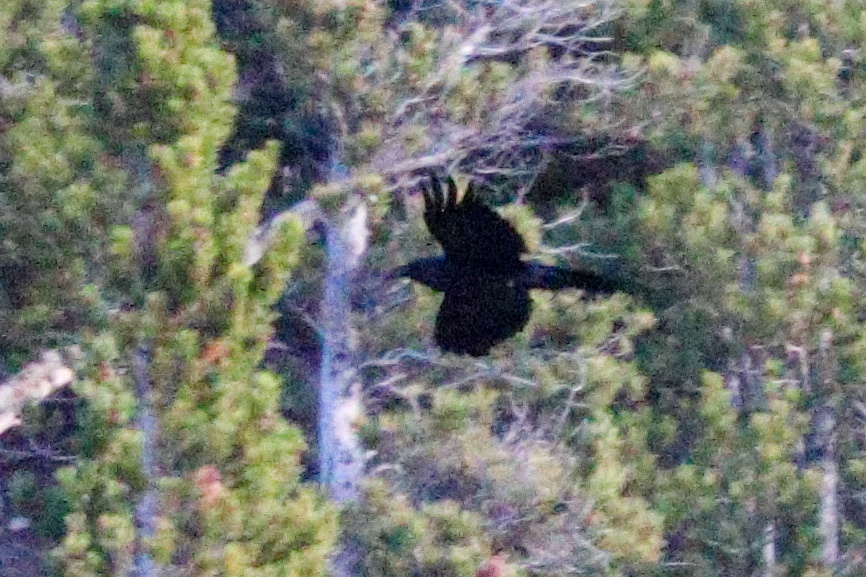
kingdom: Animalia
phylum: Chordata
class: Aves
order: Passeriformes
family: Corvidae
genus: Corvus
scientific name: Corvus corax
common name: Common raven
